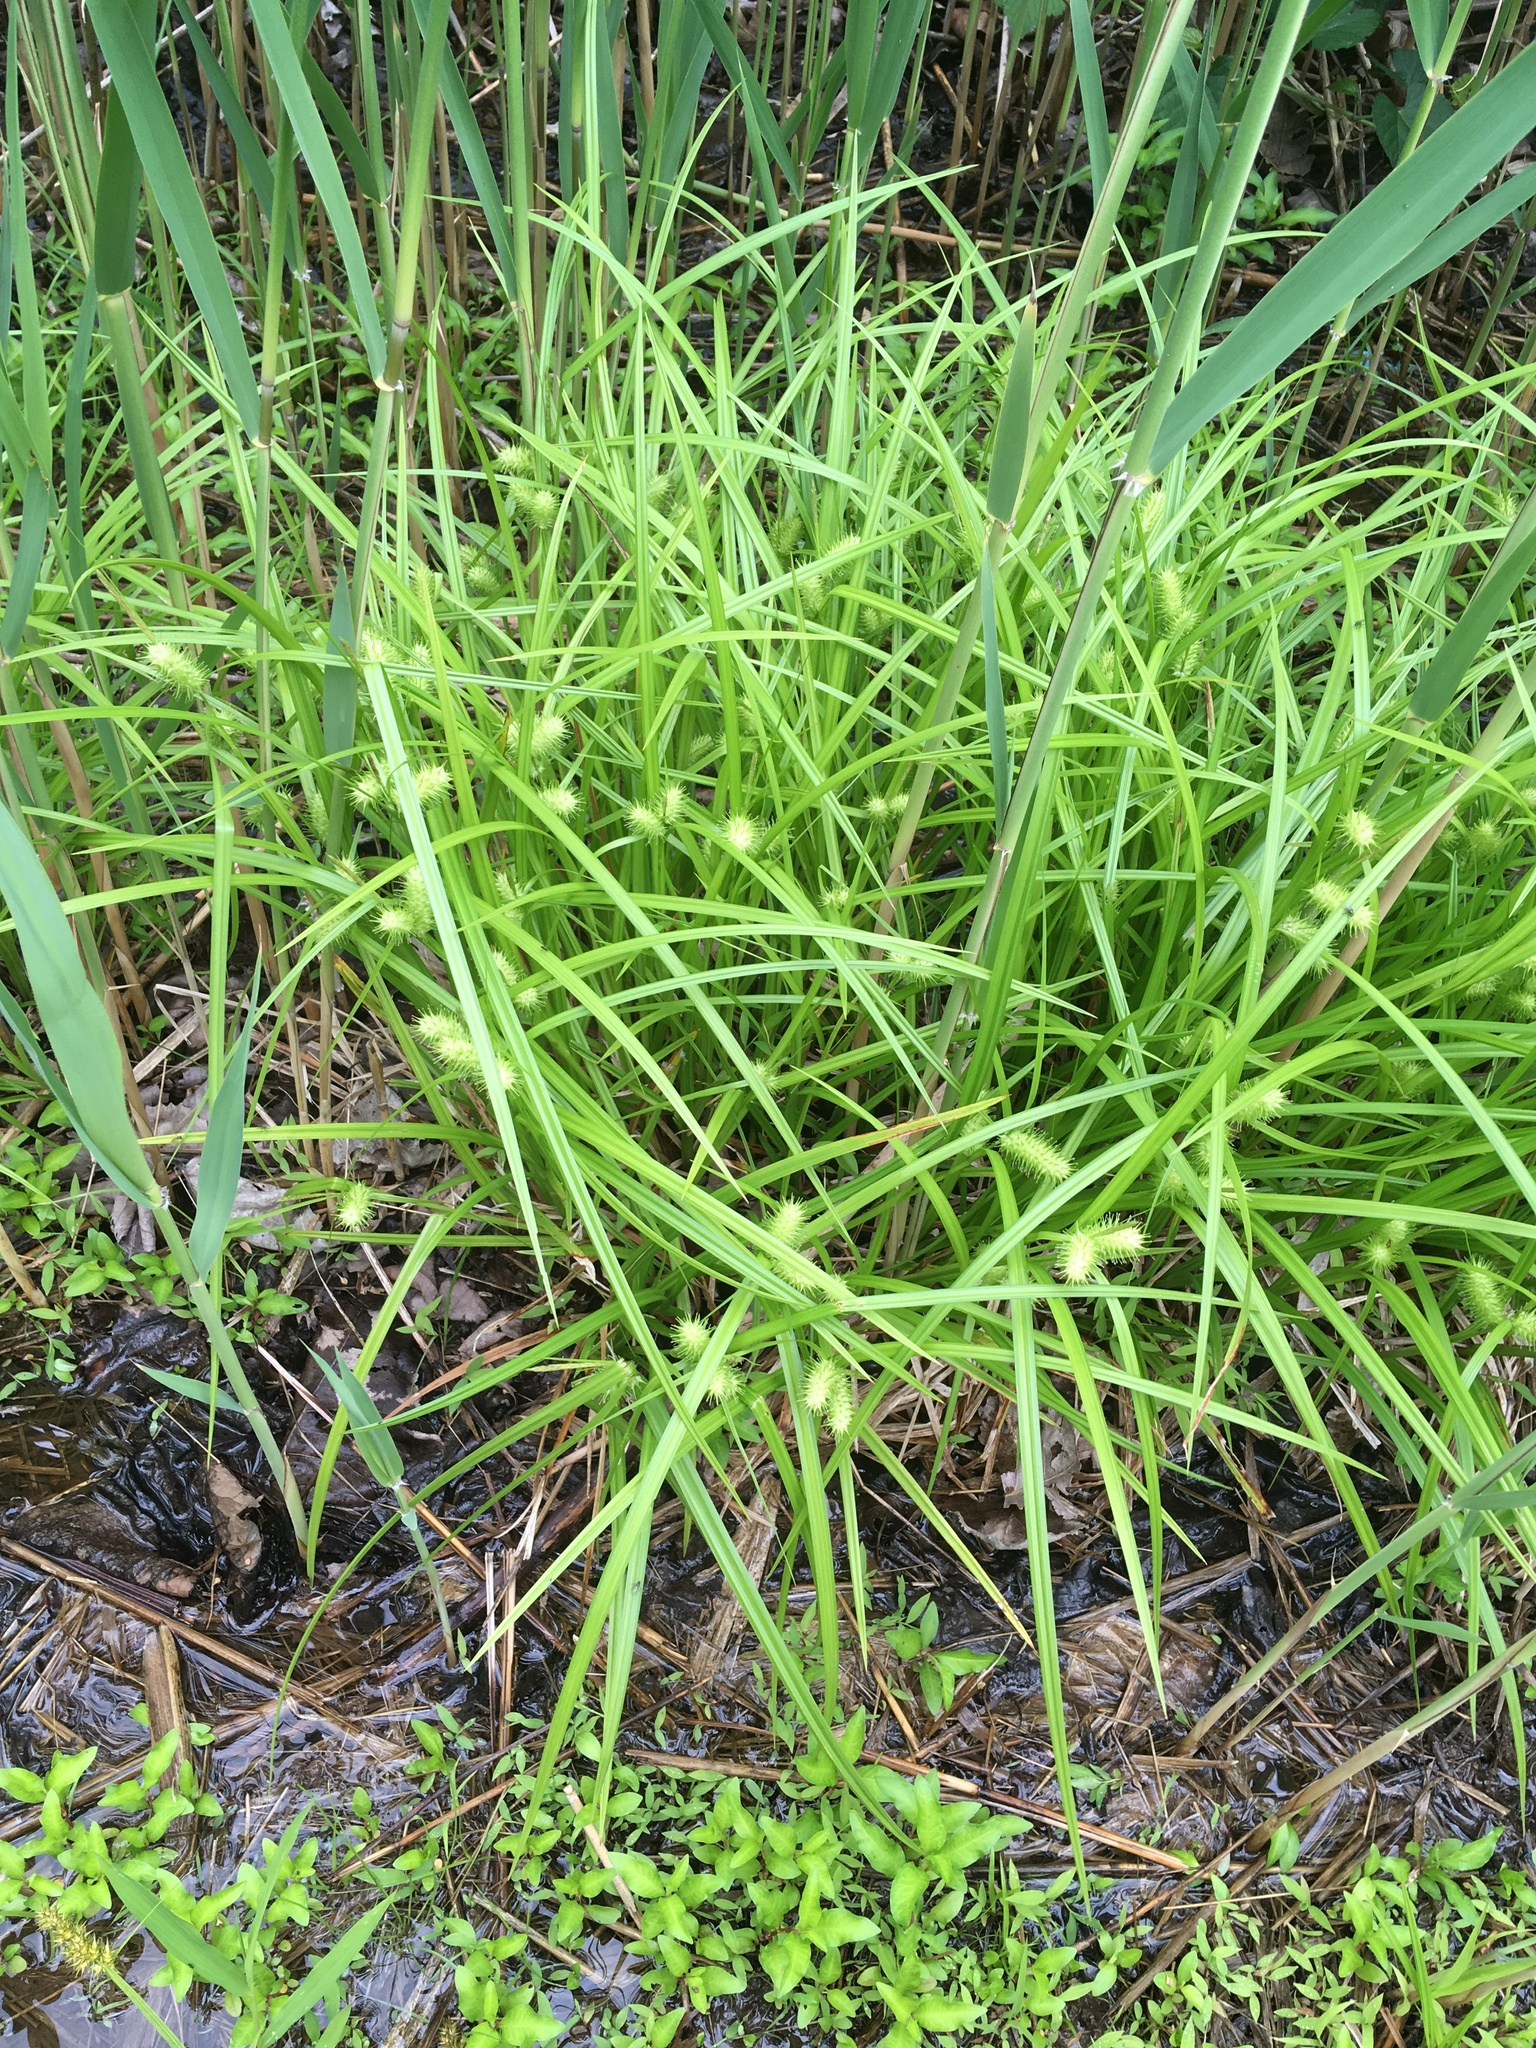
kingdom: Plantae
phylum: Tracheophyta
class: Liliopsida
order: Poales
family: Cyperaceae
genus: Carex
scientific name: Carex lurida
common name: Sallow sedge
